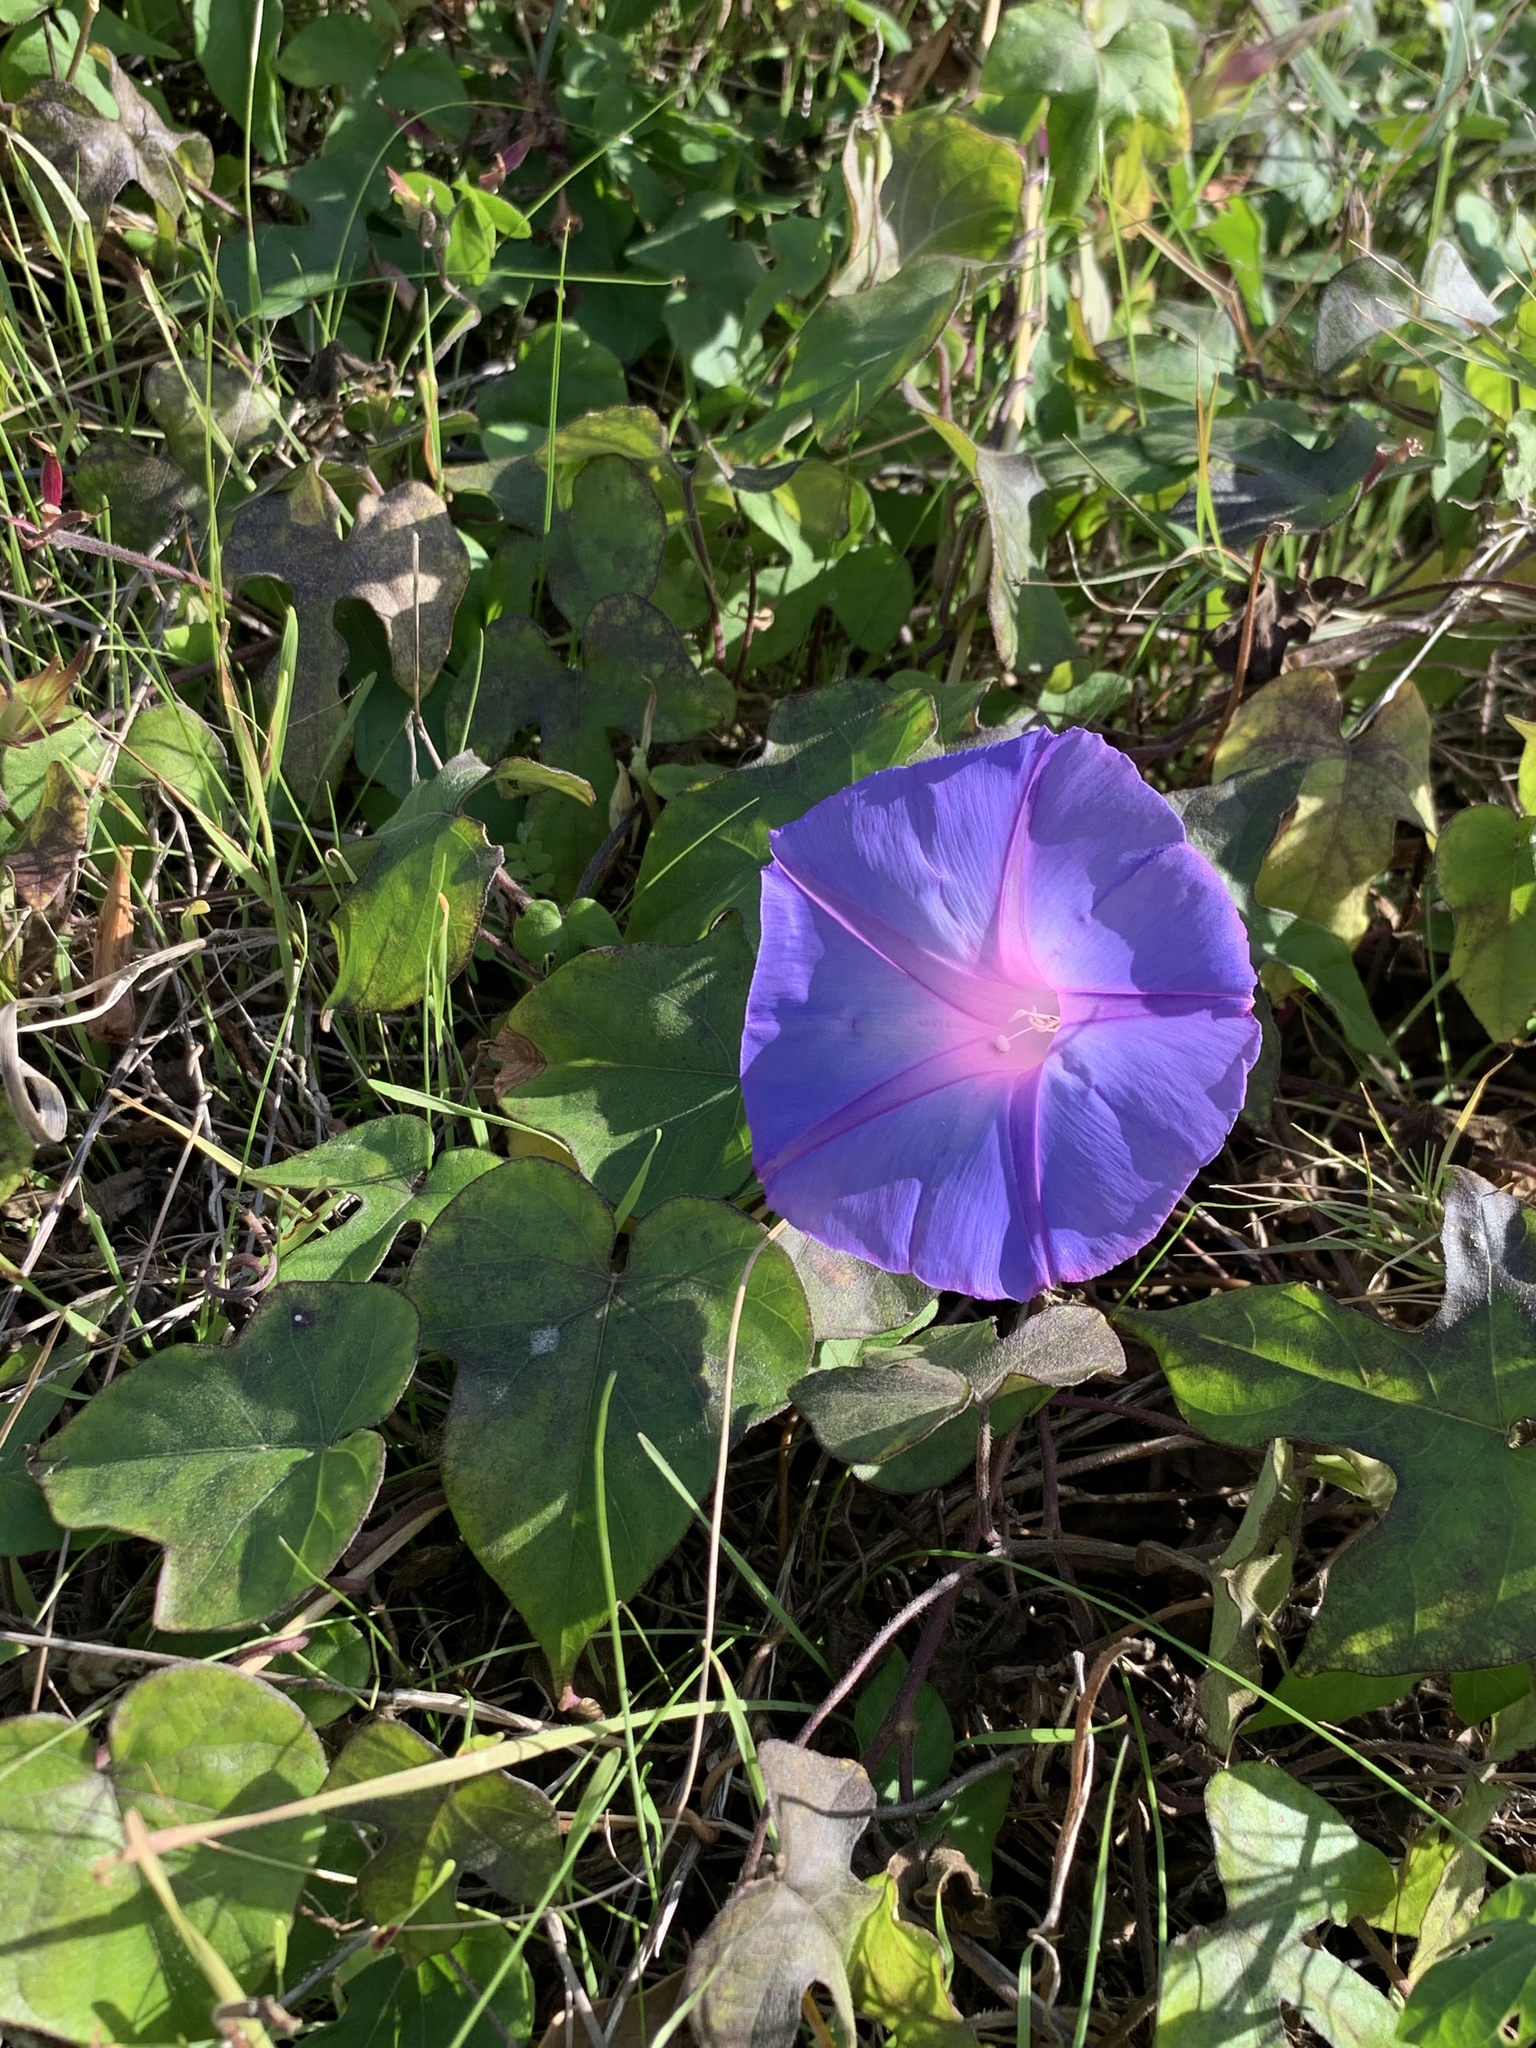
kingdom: Plantae
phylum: Tracheophyta
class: Magnoliopsida
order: Solanales
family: Convolvulaceae
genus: Ipomoea
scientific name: Ipomoea indica
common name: Blue dawnflower
